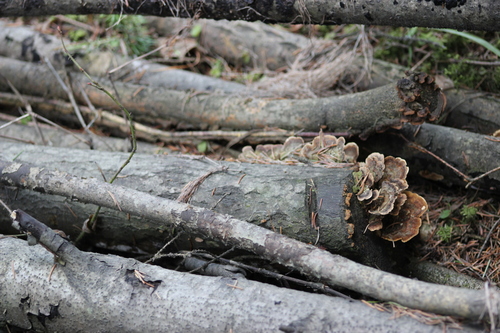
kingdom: Fungi
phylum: Basidiomycota
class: Agaricomycetes
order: Polyporales
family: Polyporaceae
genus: Trametes
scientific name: Trametes versicolor
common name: Turkeytail
